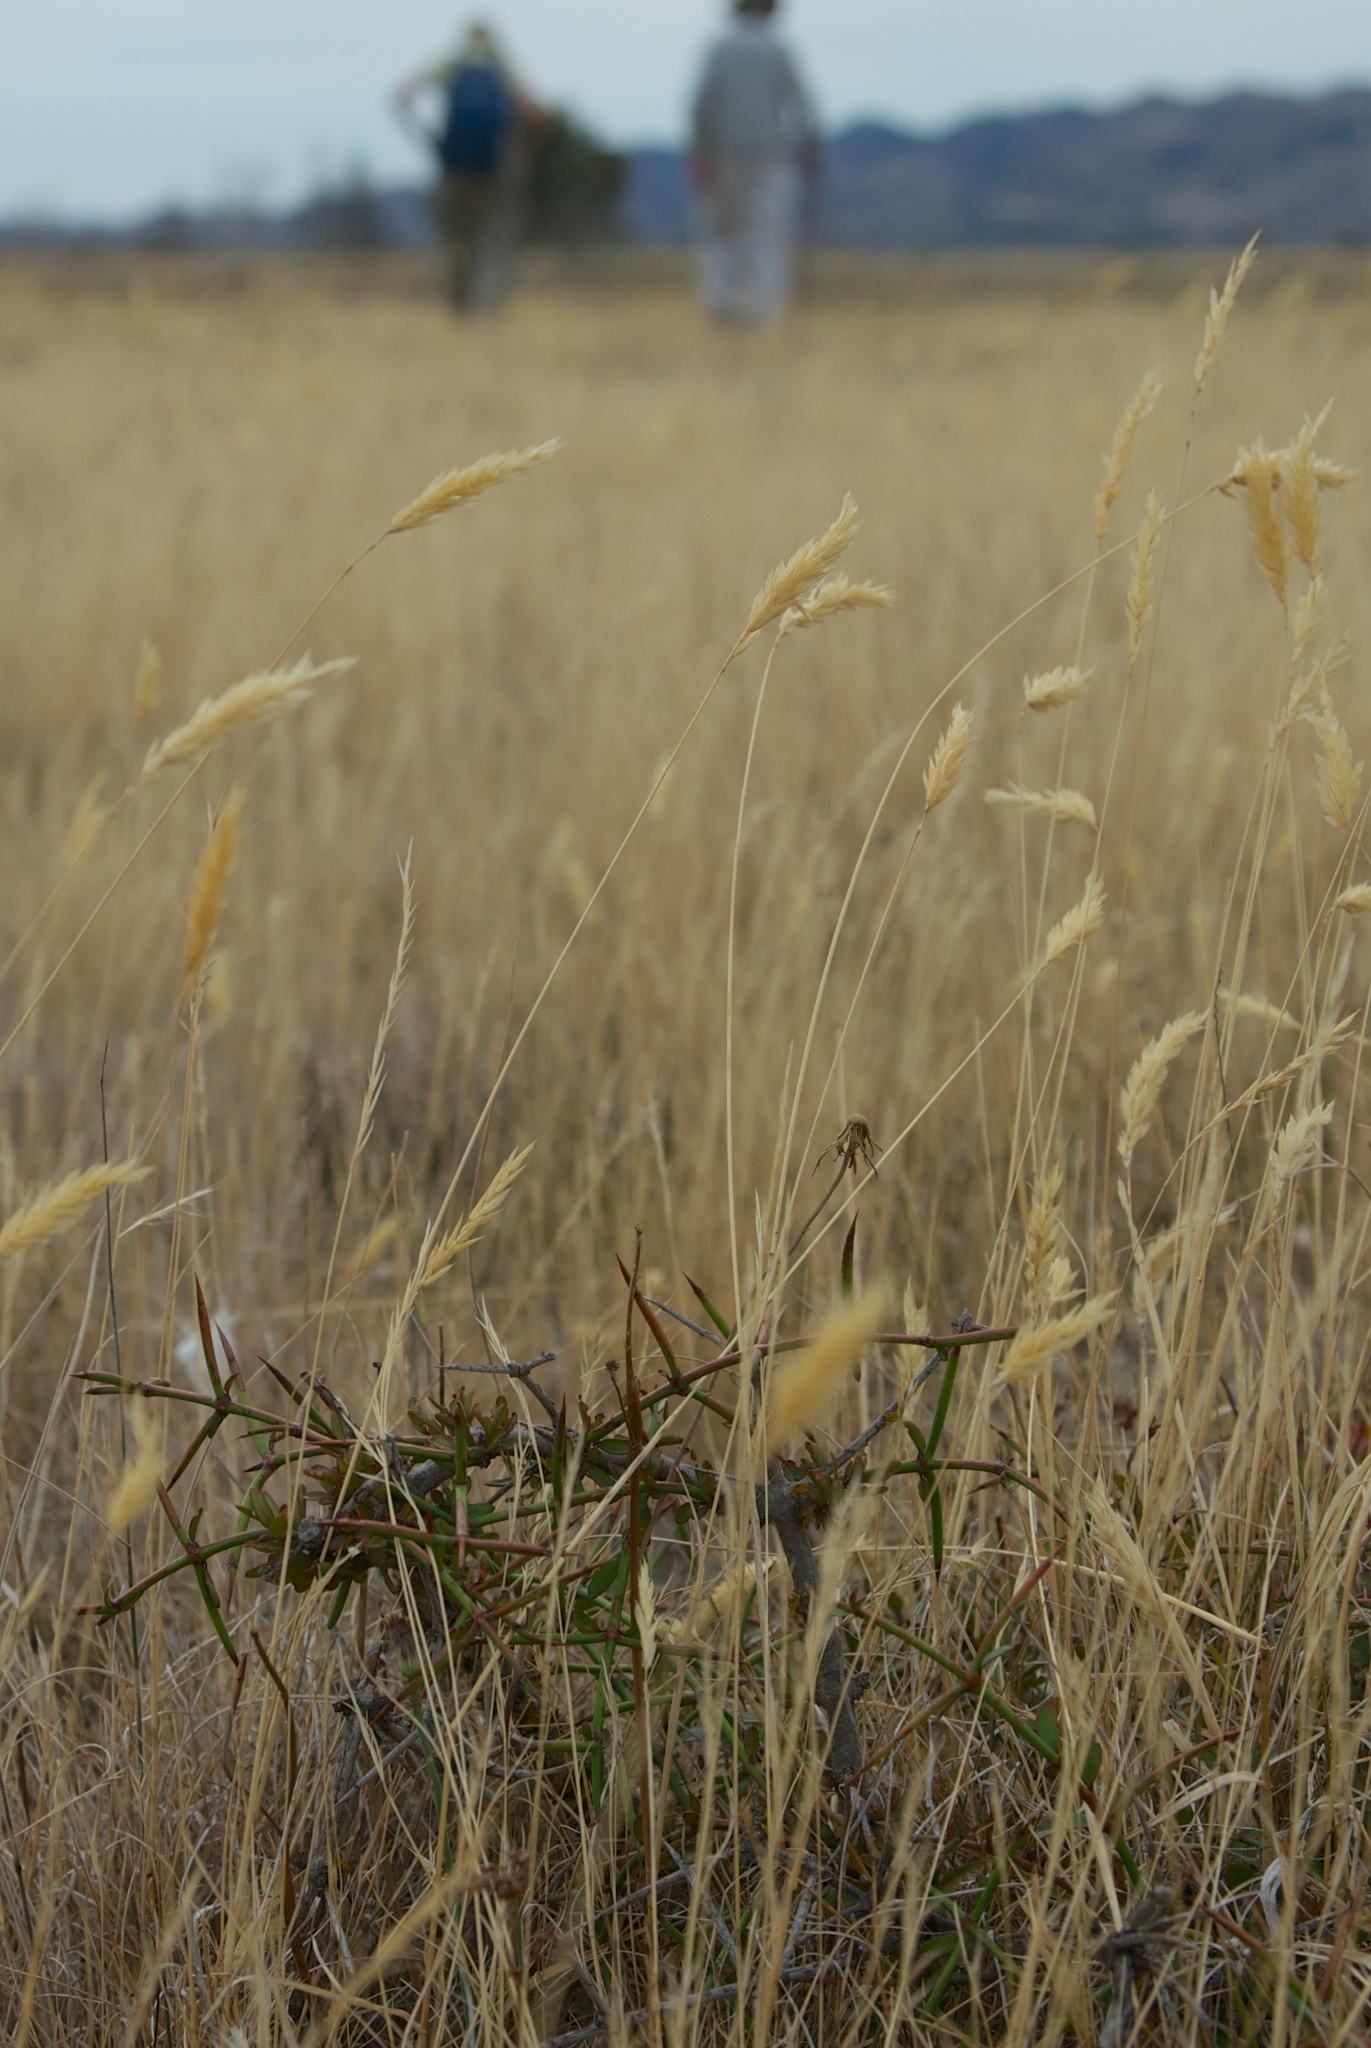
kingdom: Plantae
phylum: Tracheophyta
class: Magnoliopsida
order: Rosales
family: Rhamnaceae
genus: Discaria
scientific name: Discaria toumatou
